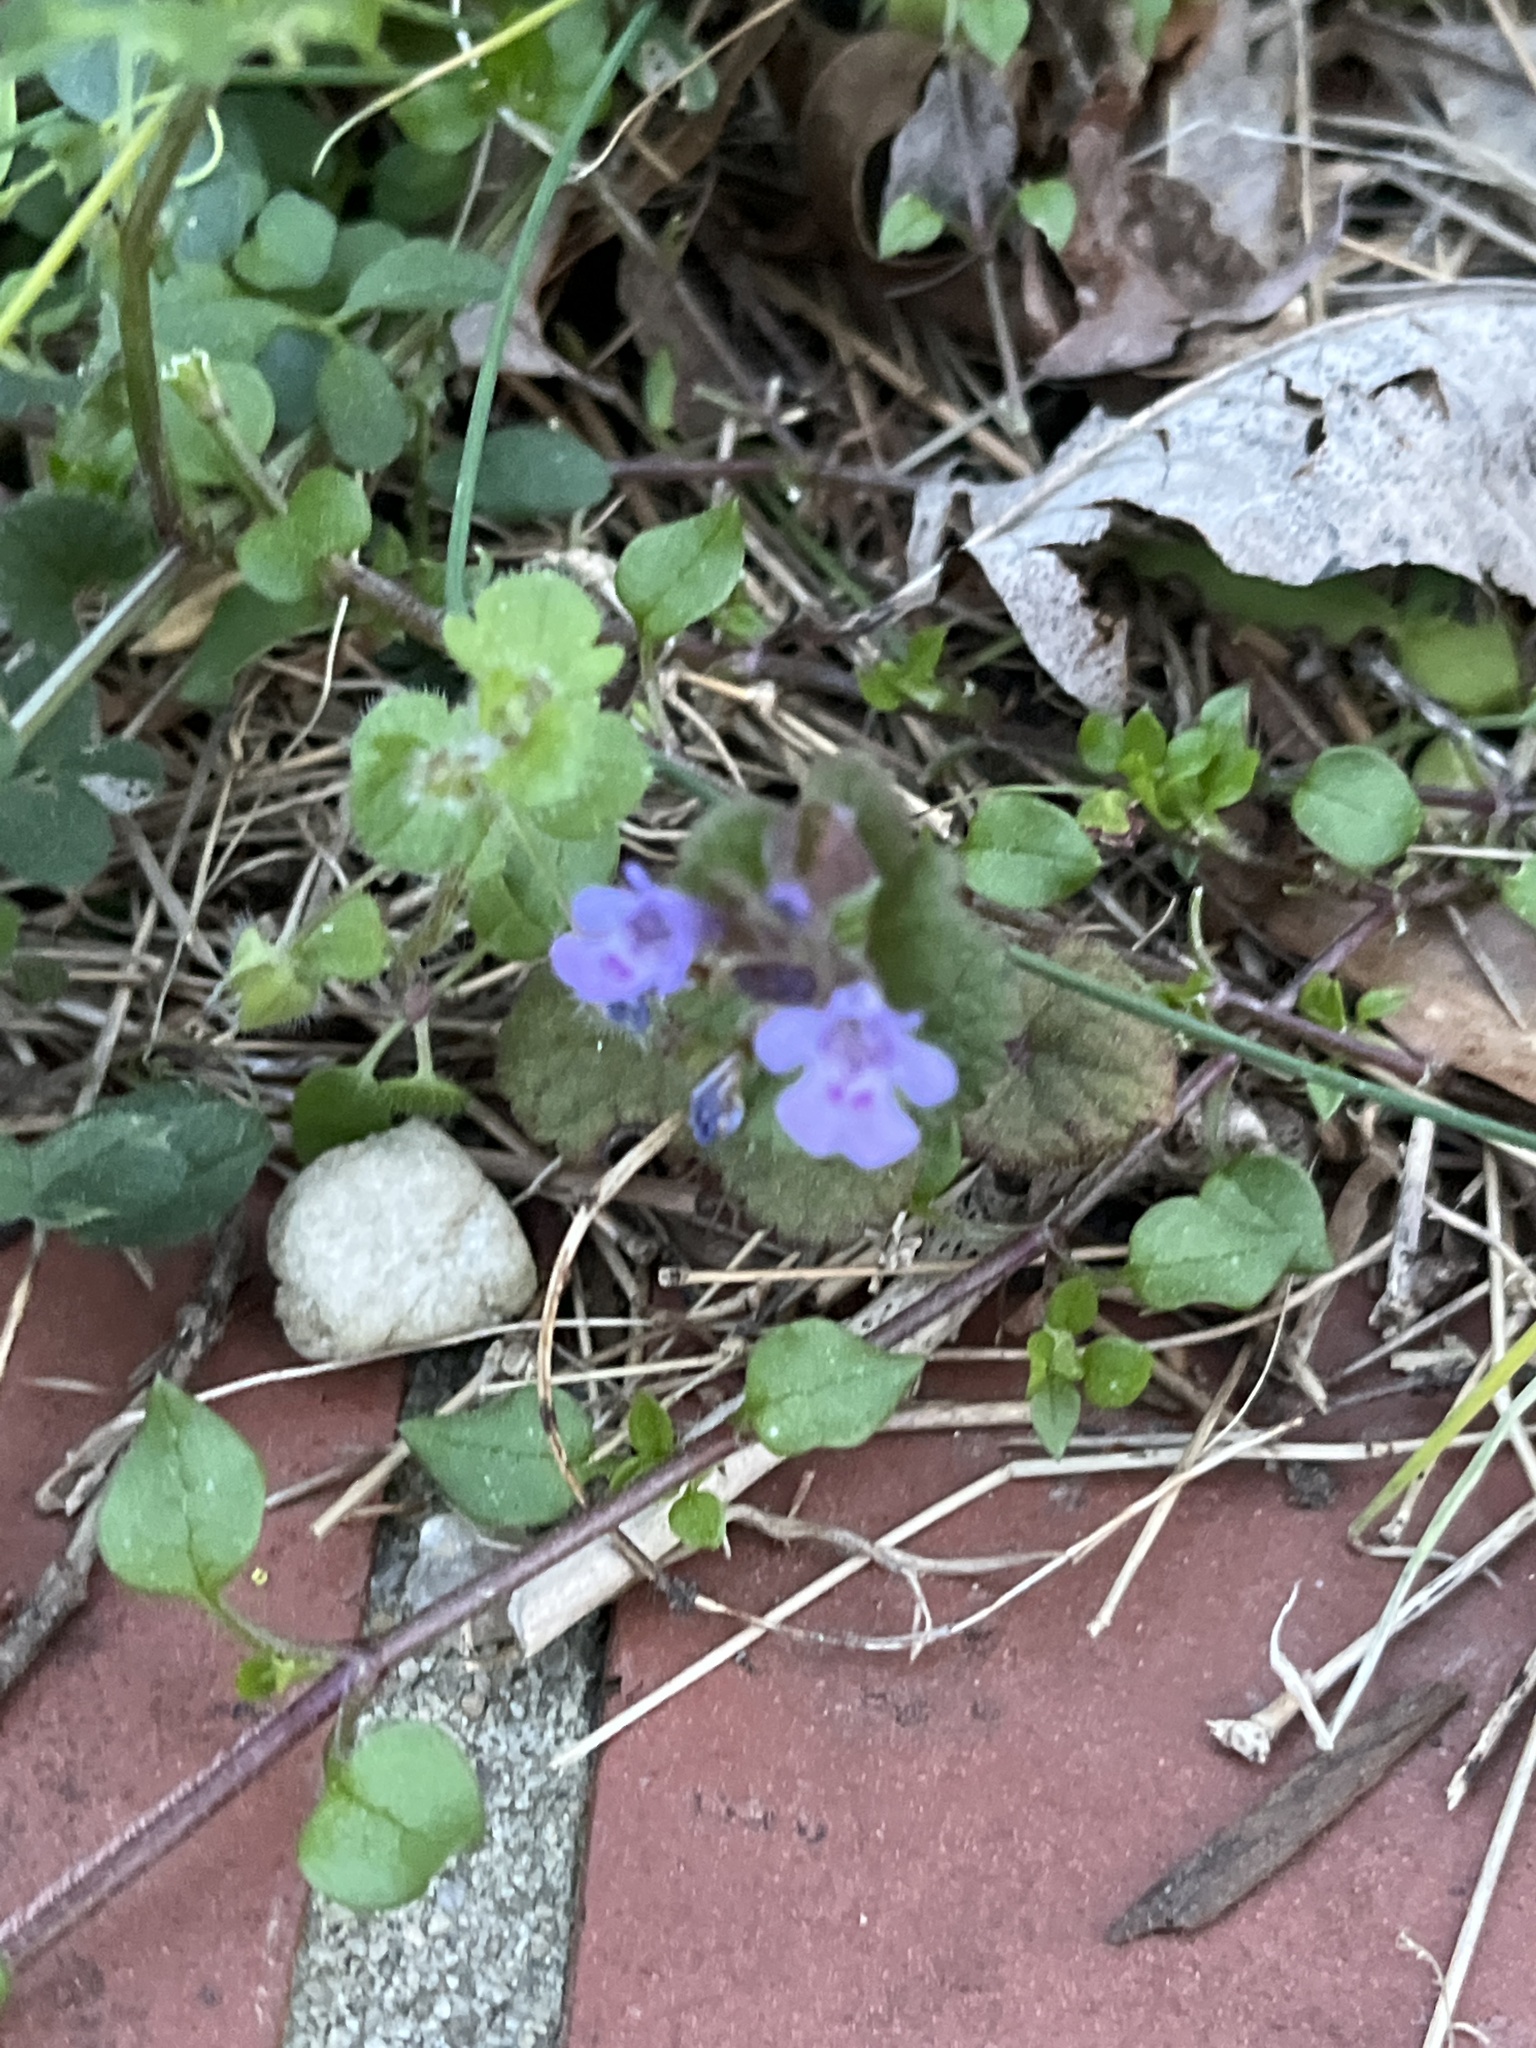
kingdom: Plantae
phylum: Tracheophyta
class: Magnoliopsida
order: Lamiales
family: Lamiaceae
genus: Glechoma
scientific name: Glechoma hederacea
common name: Ground ivy
